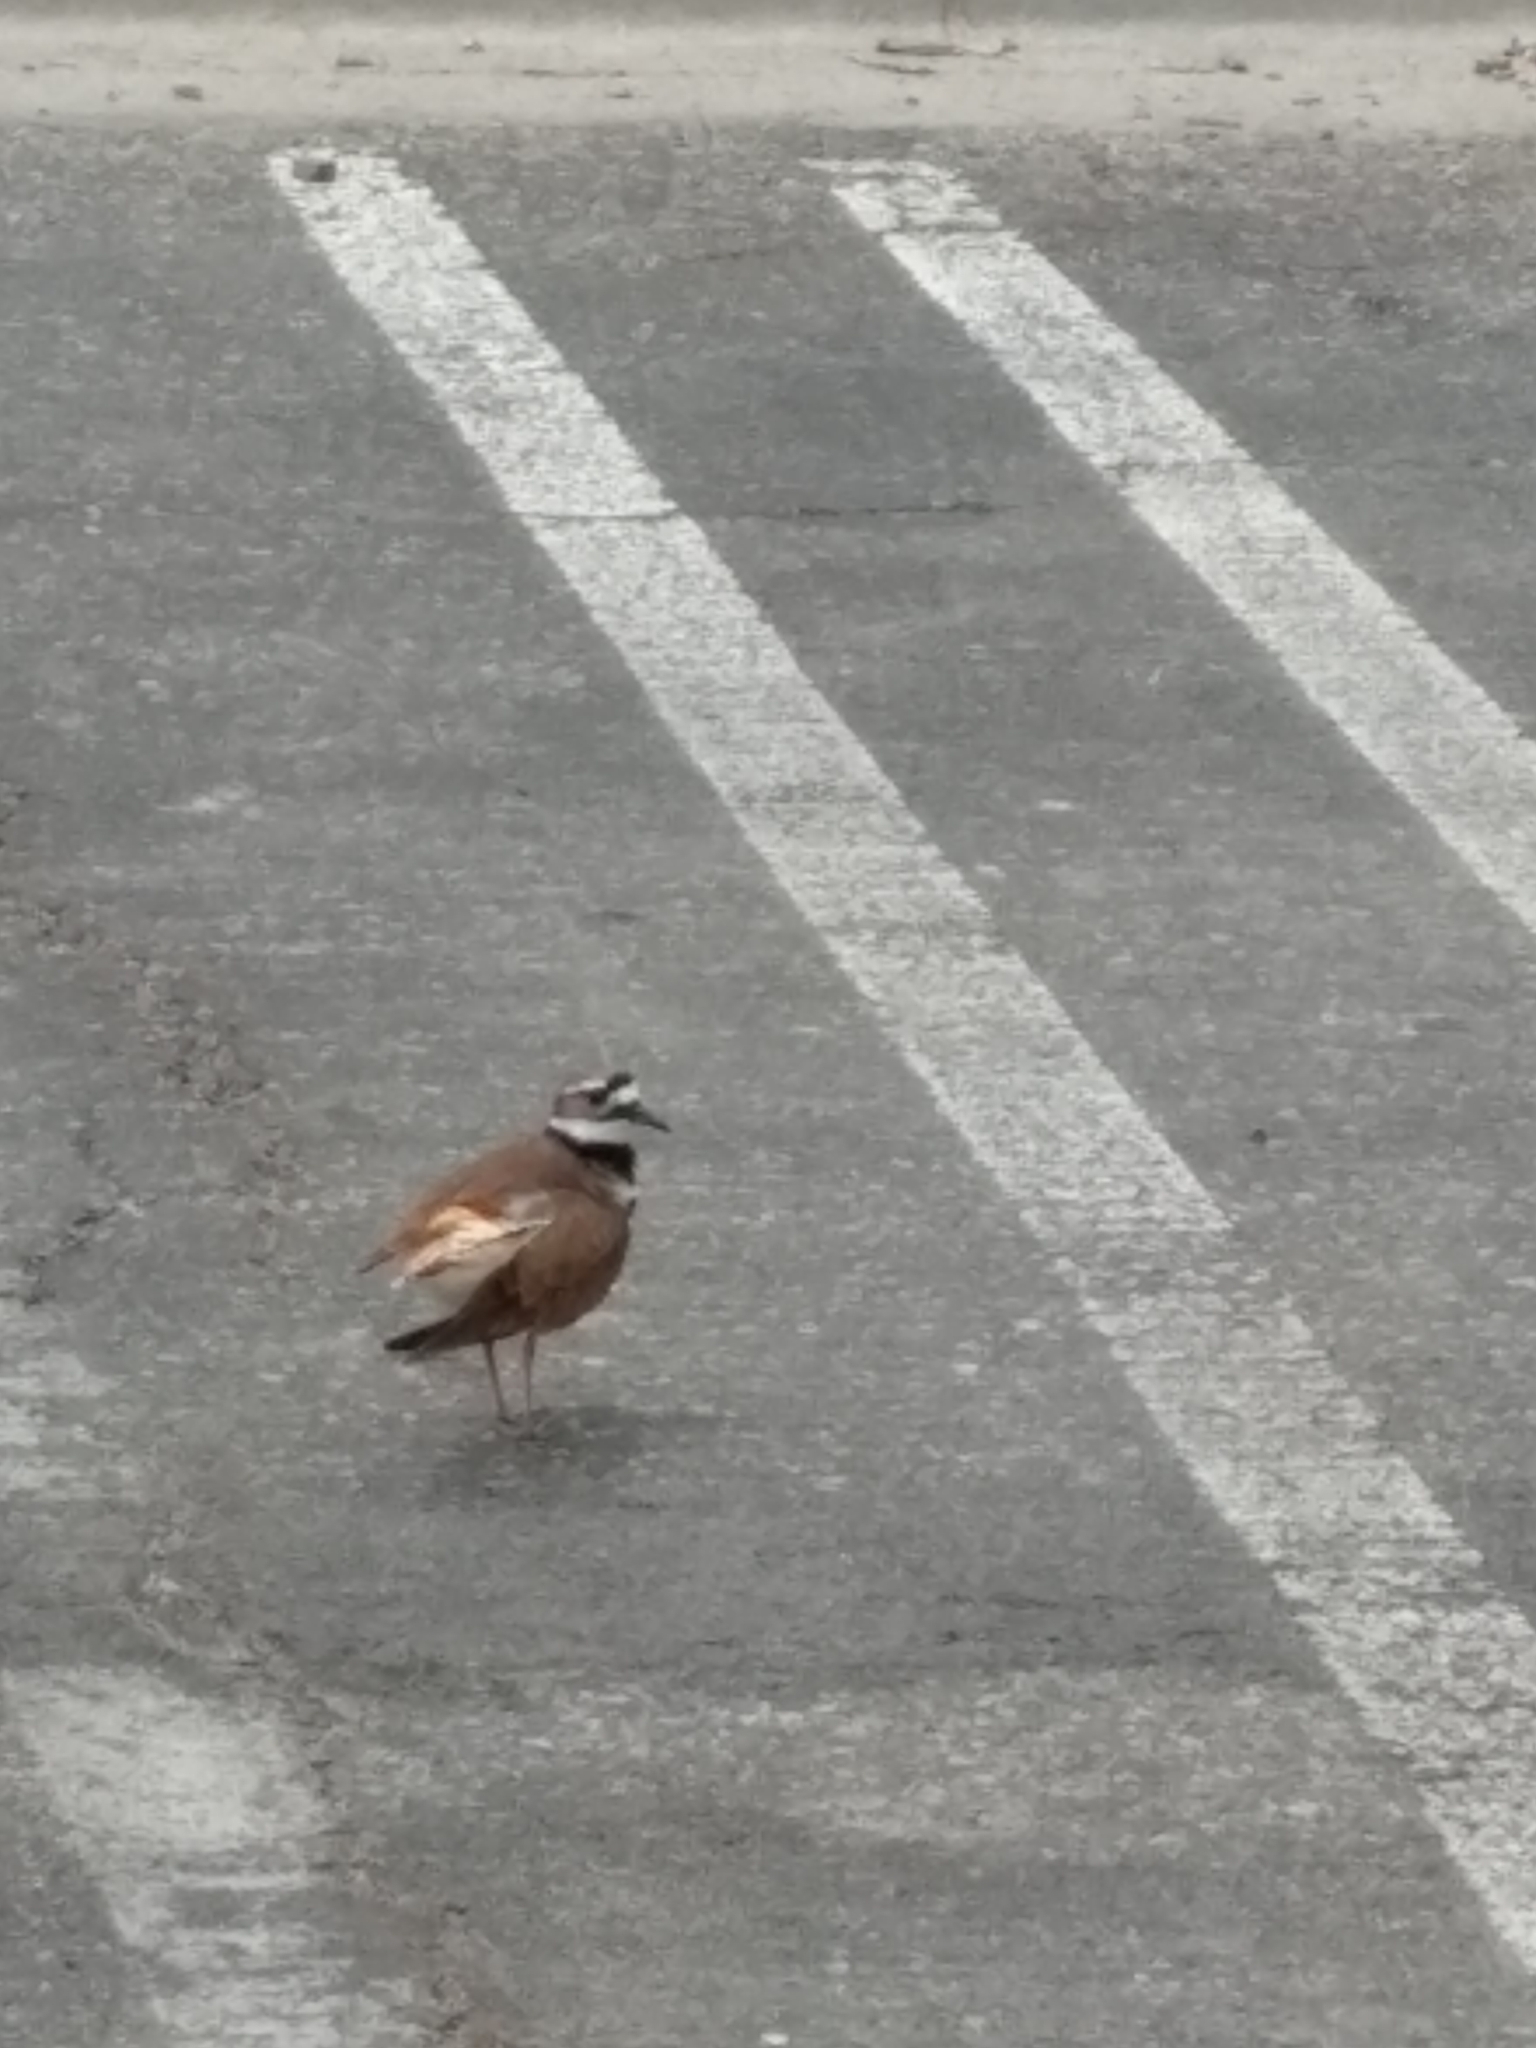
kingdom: Animalia
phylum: Chordata
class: Aves
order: Charadriiformes
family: Charadriidae
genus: Charadrius
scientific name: Charadrius vociferus
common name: Killdeer
